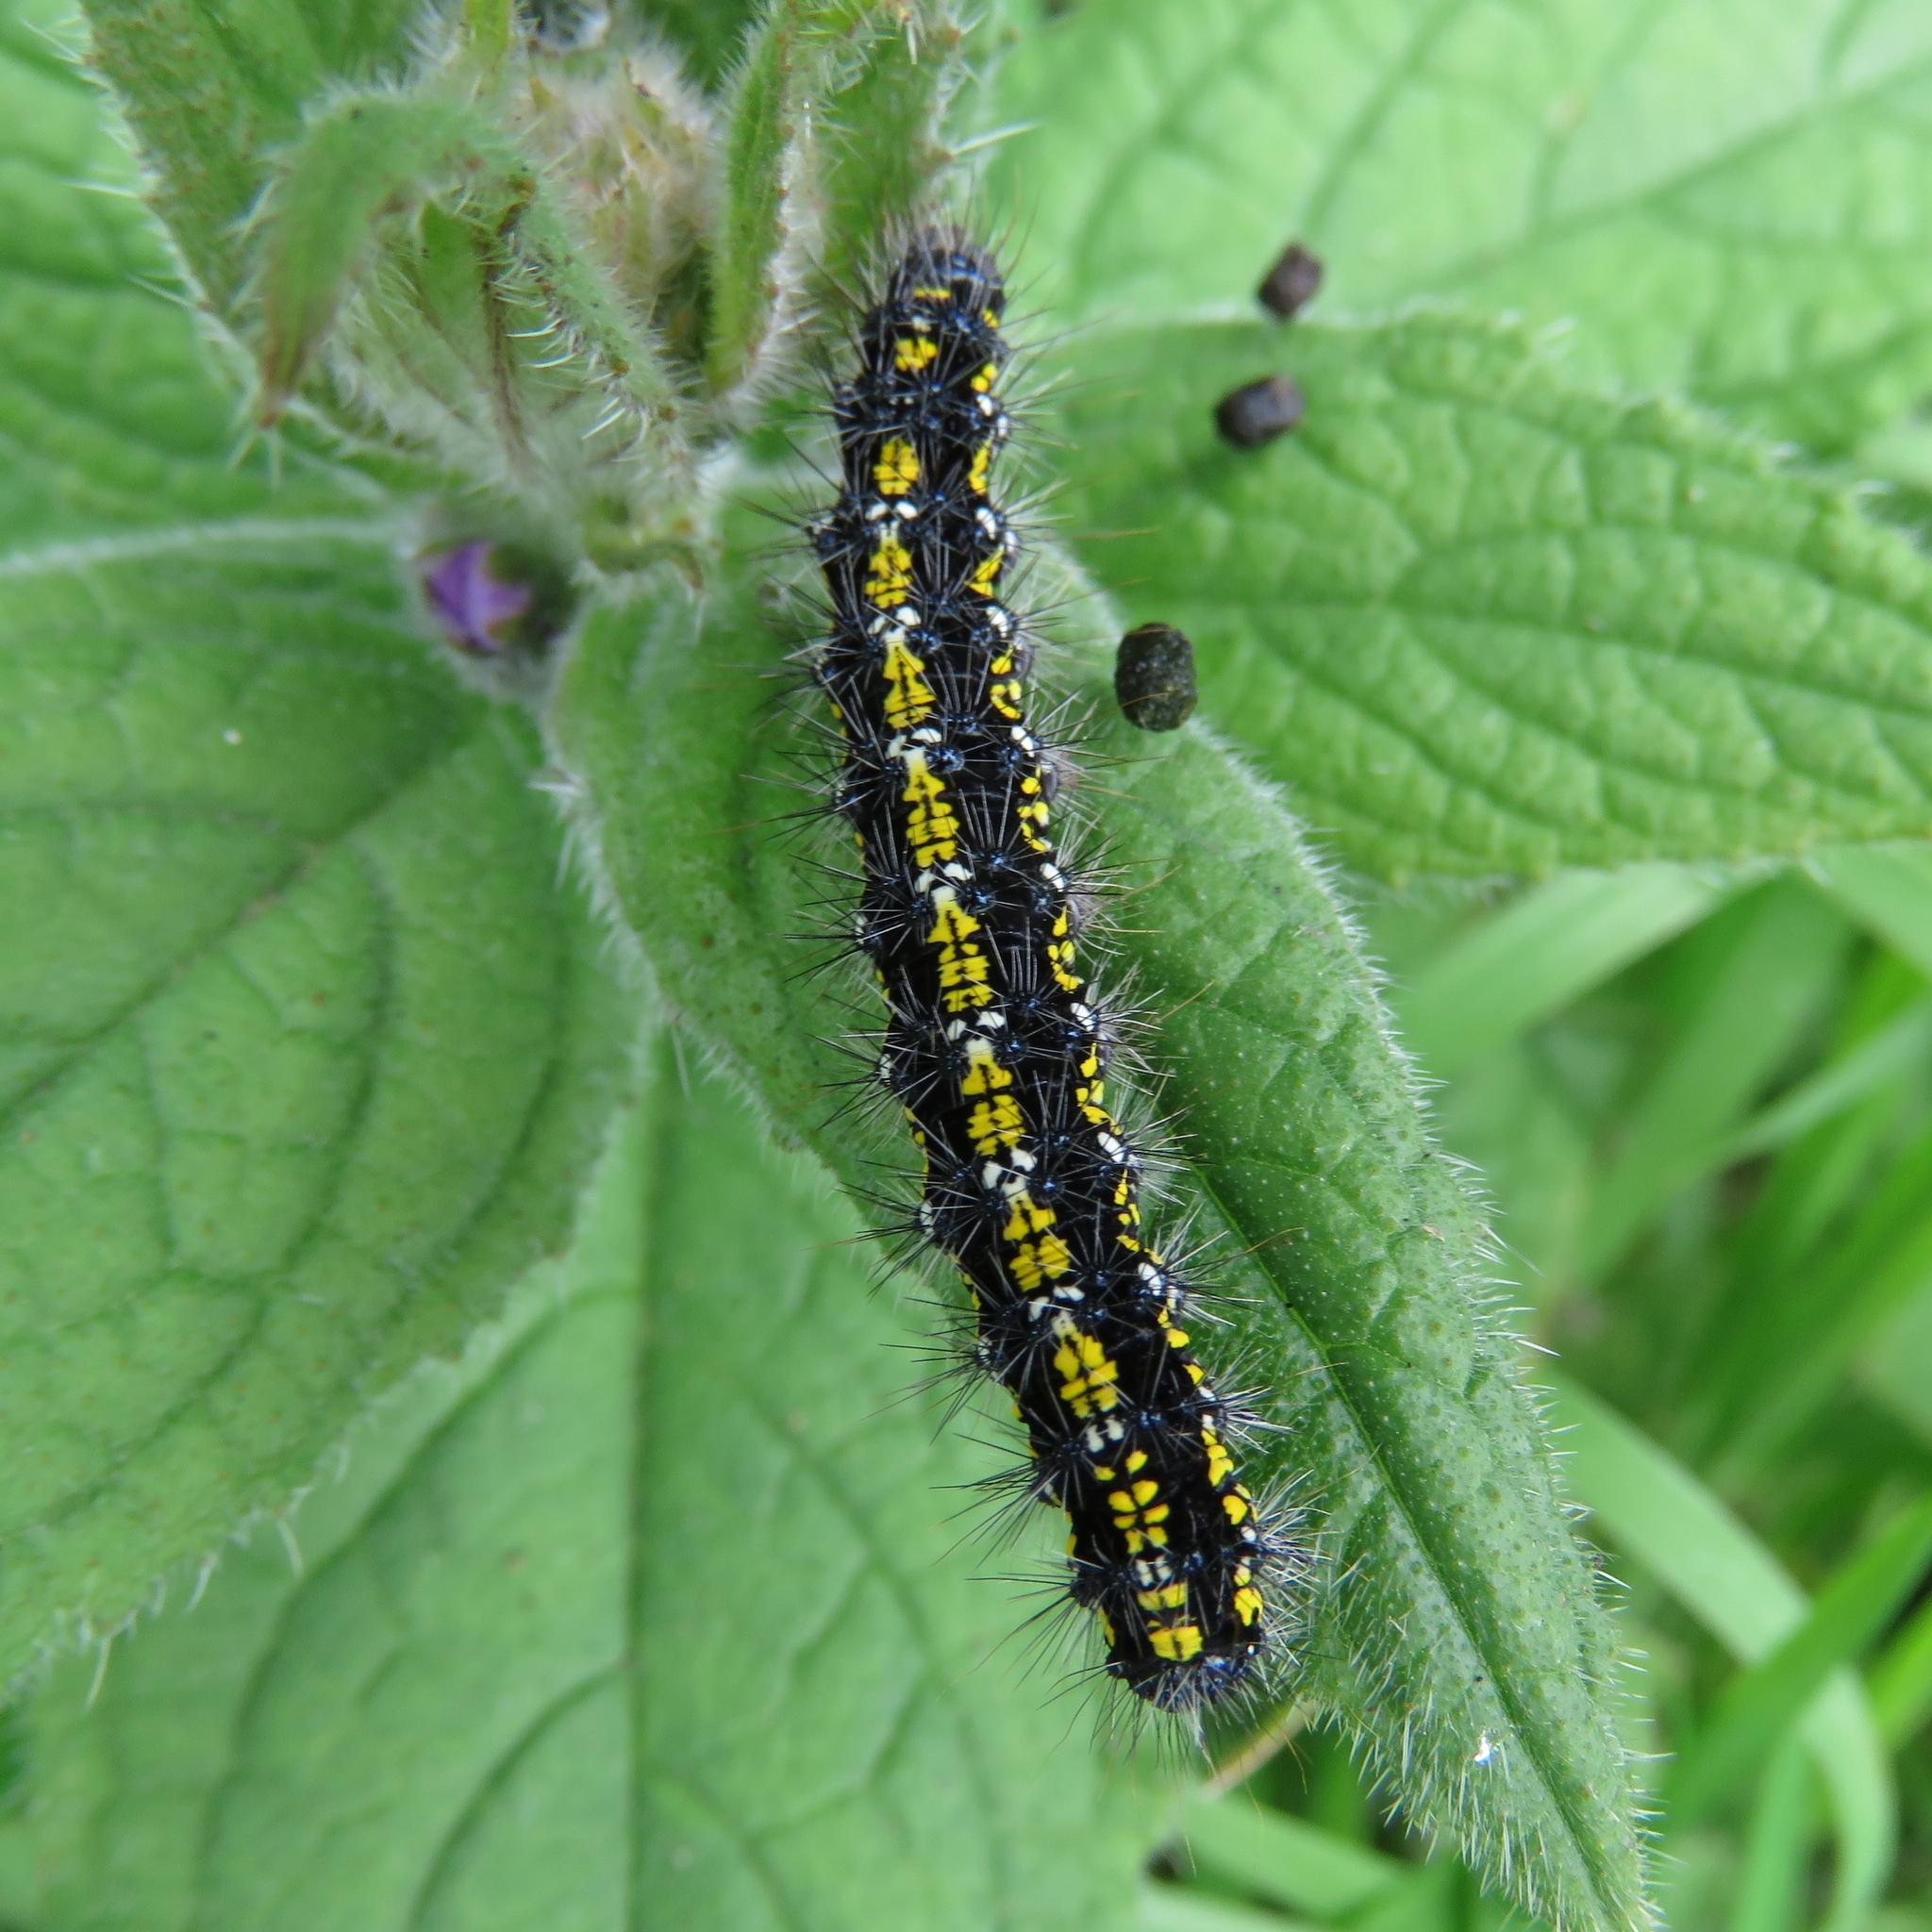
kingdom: Animalia
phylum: Arthropoda
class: Insecta
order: Lepidoptera
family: Erebidae
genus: Callimorpha
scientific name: Callimorpha dominula
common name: Scarlet tiger
